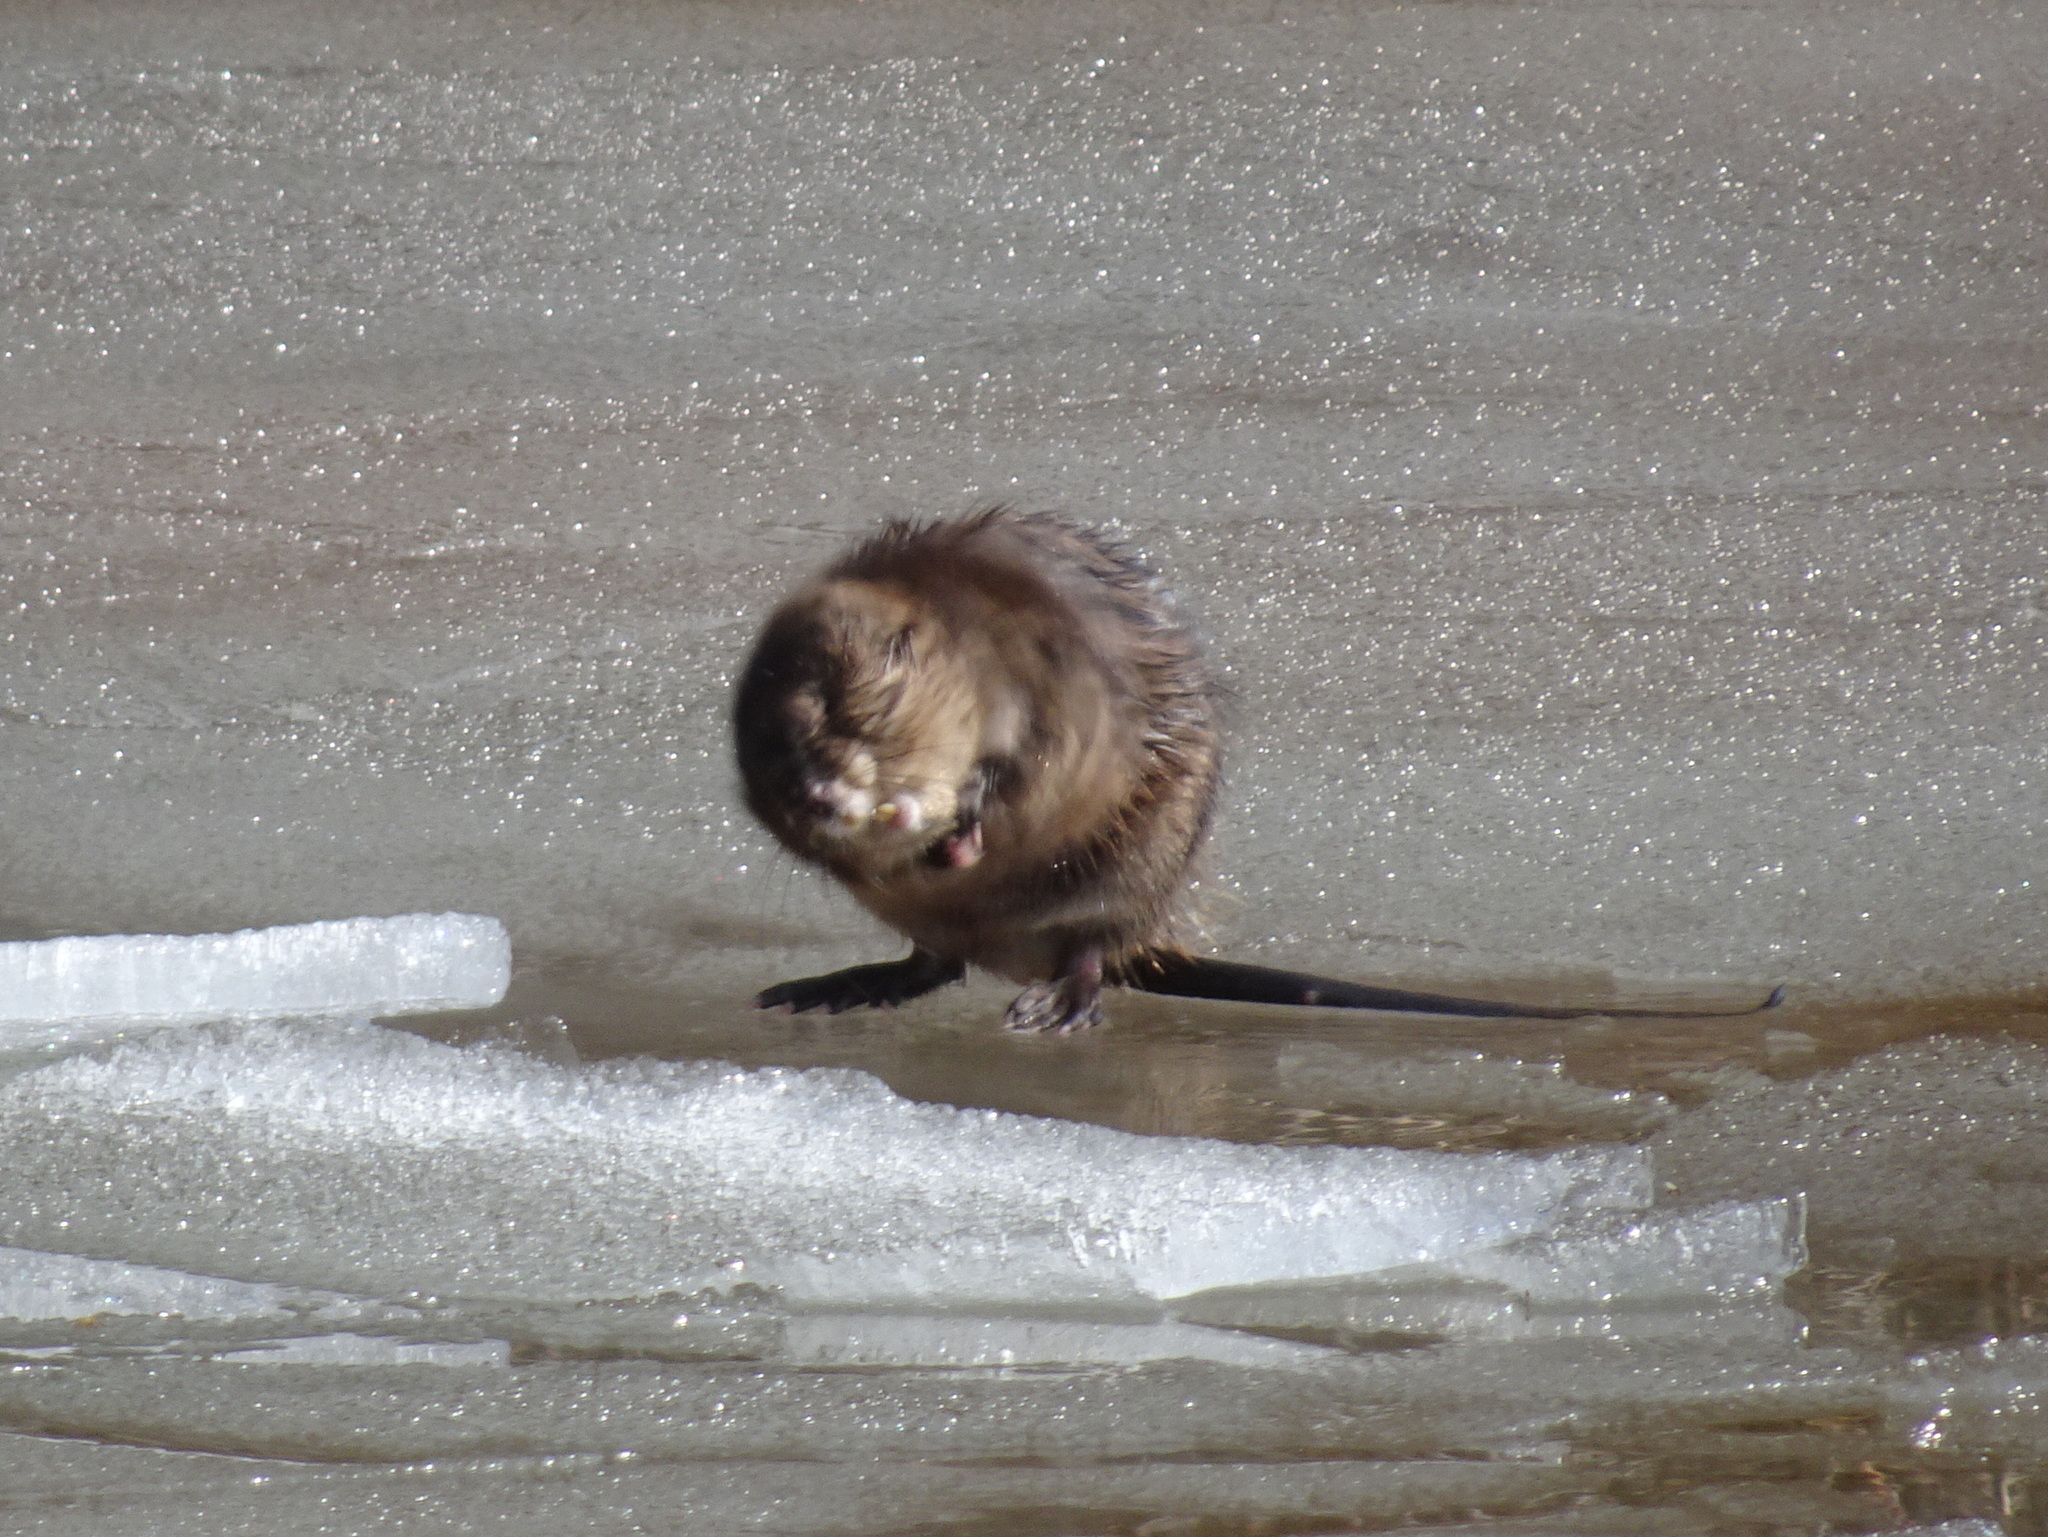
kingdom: Animalia
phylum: Chordata
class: Mammalia
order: Rodentia
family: Cricetidae
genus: Ondatra
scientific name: Ondatra zibethicus
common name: Muskrat
